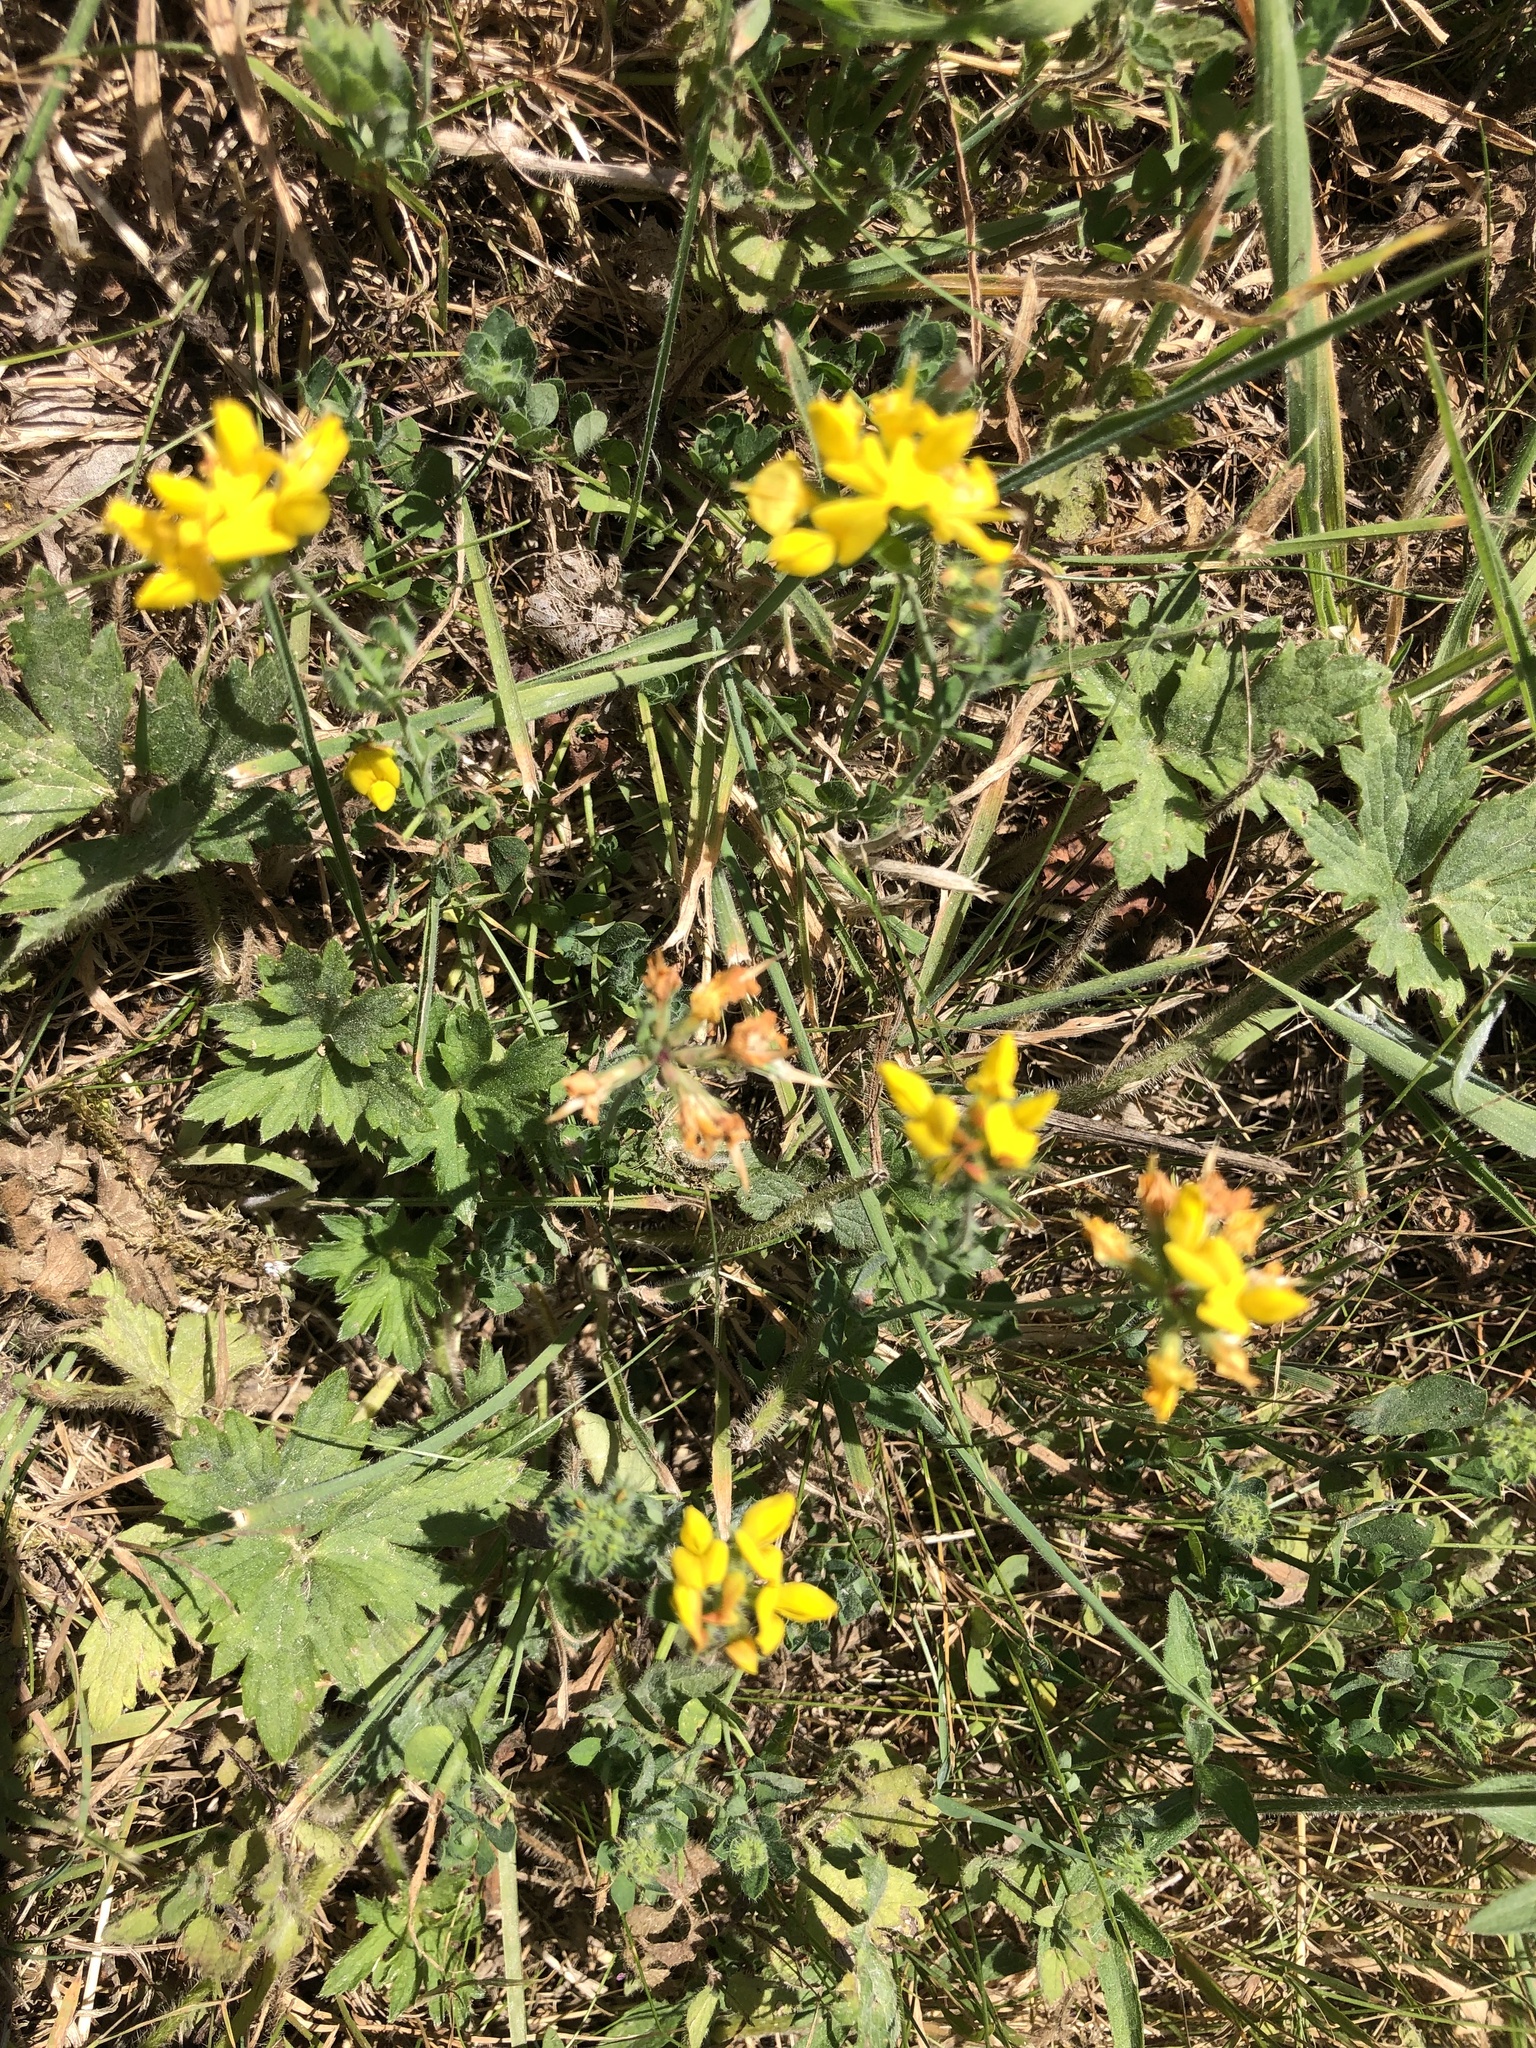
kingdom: Plantae
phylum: Tracheophyta
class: Magnoliopsida
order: Fabales
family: Fabaceae
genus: Lotus
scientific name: Lotus pedunculatus
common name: Greater birdsfoot-trefoil
